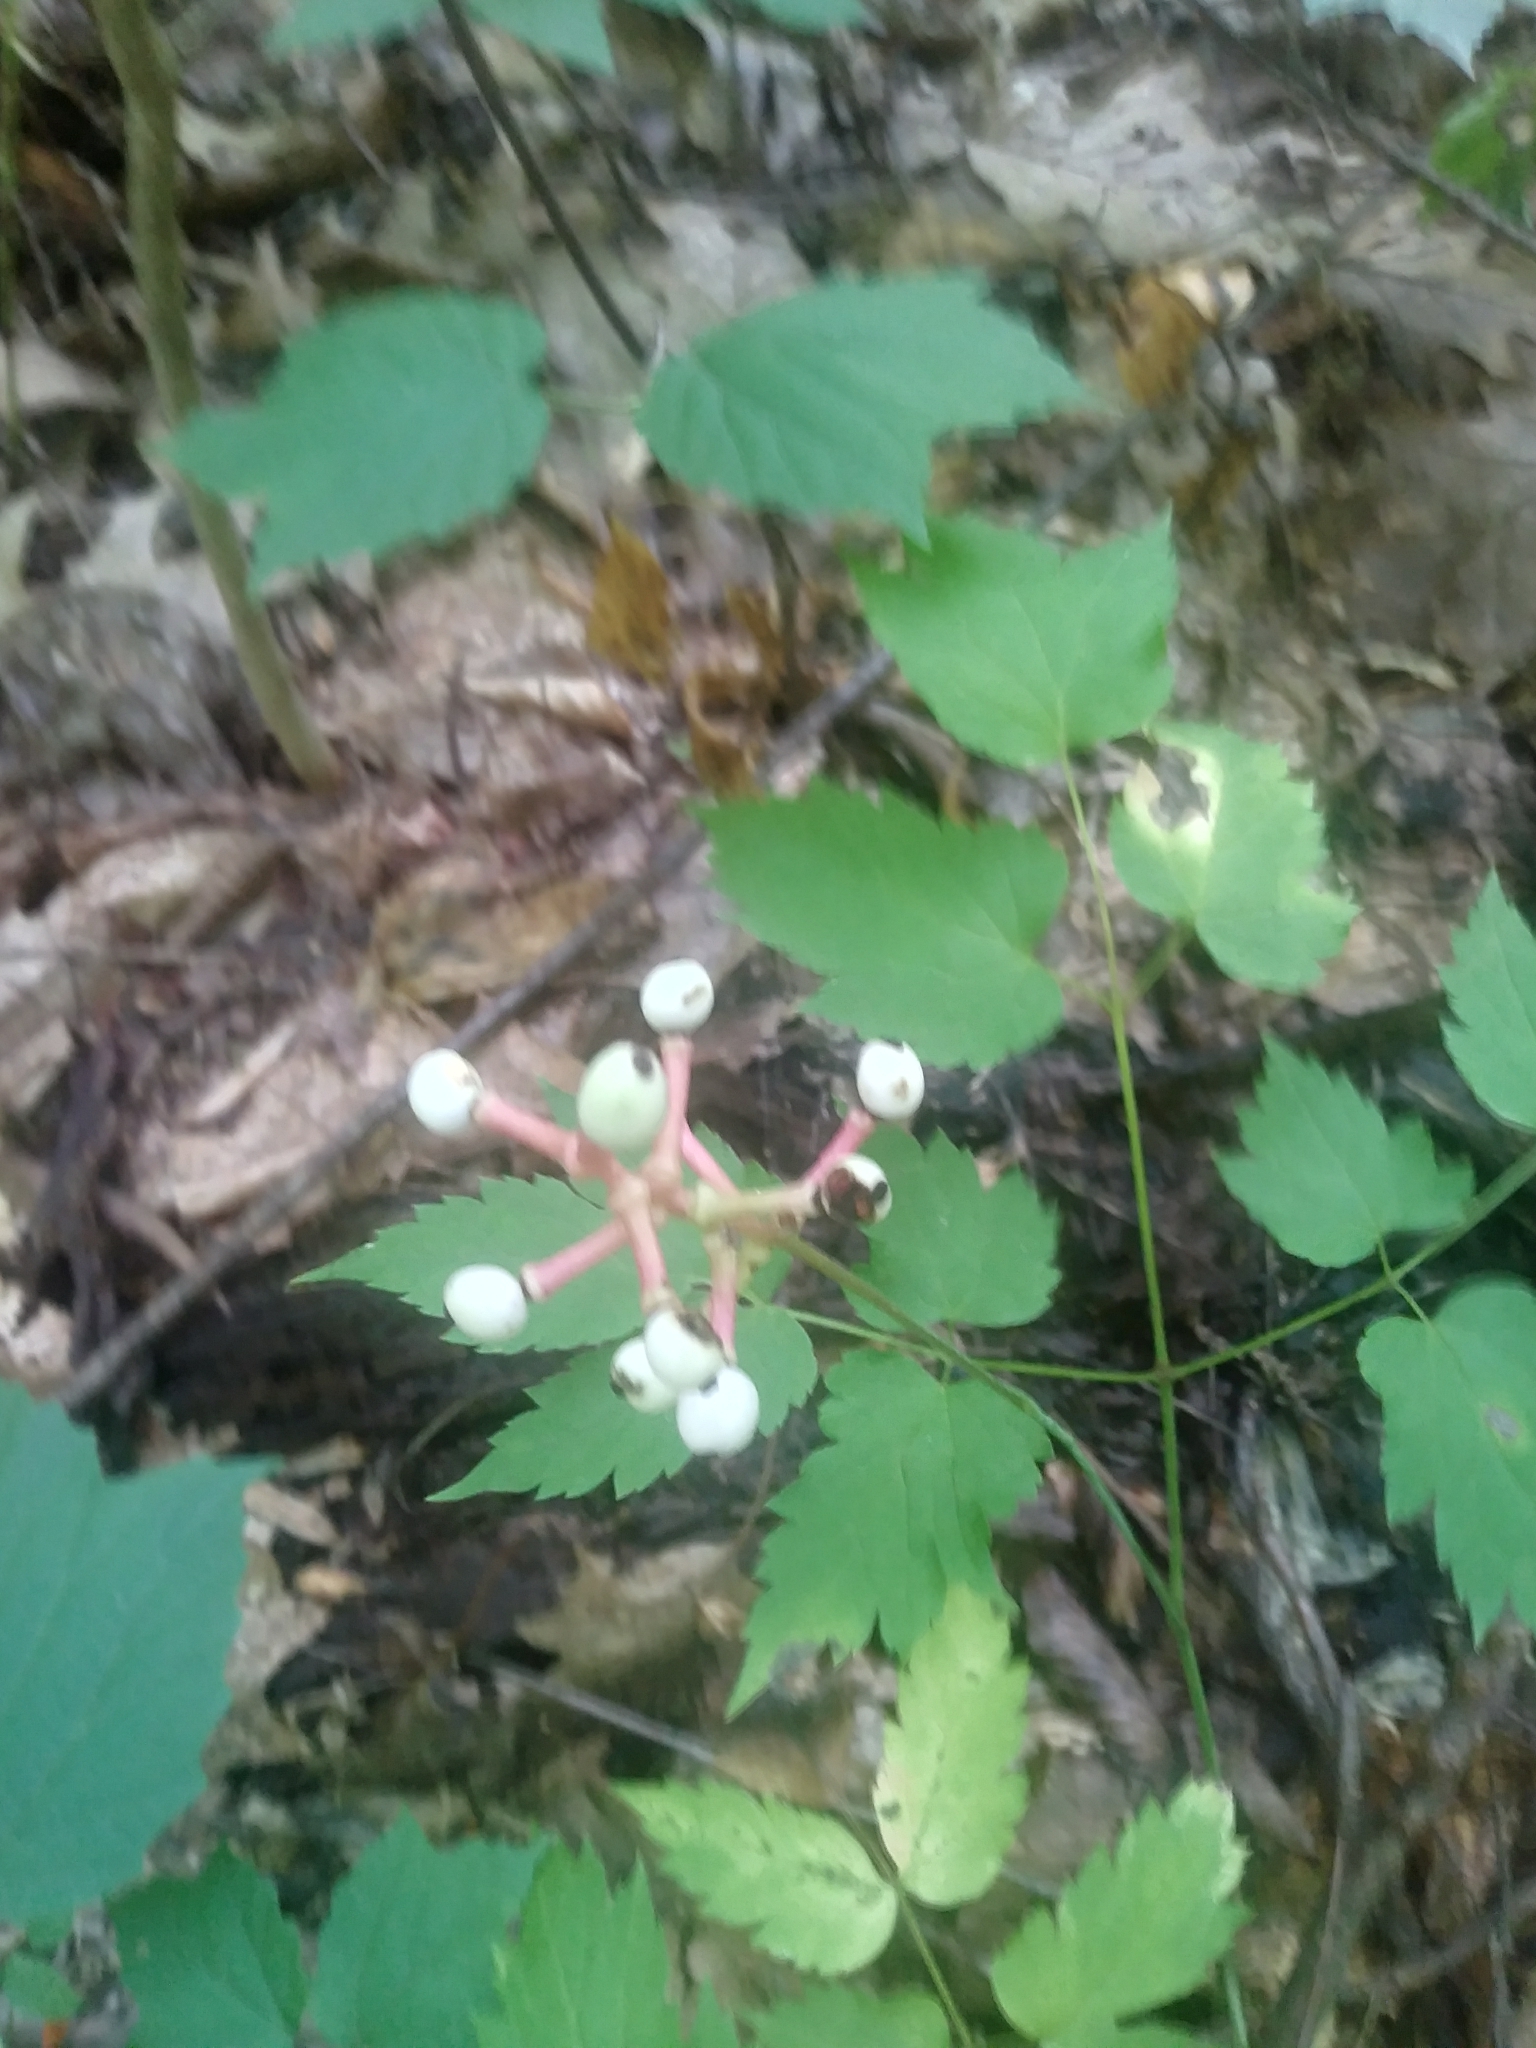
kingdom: Plantae
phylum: Tracheophyta
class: Magnoliopsida
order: Ranunculales
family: Ranunculaceae
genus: Actaea
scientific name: Actaea pachypoda
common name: Doll's-eyes
